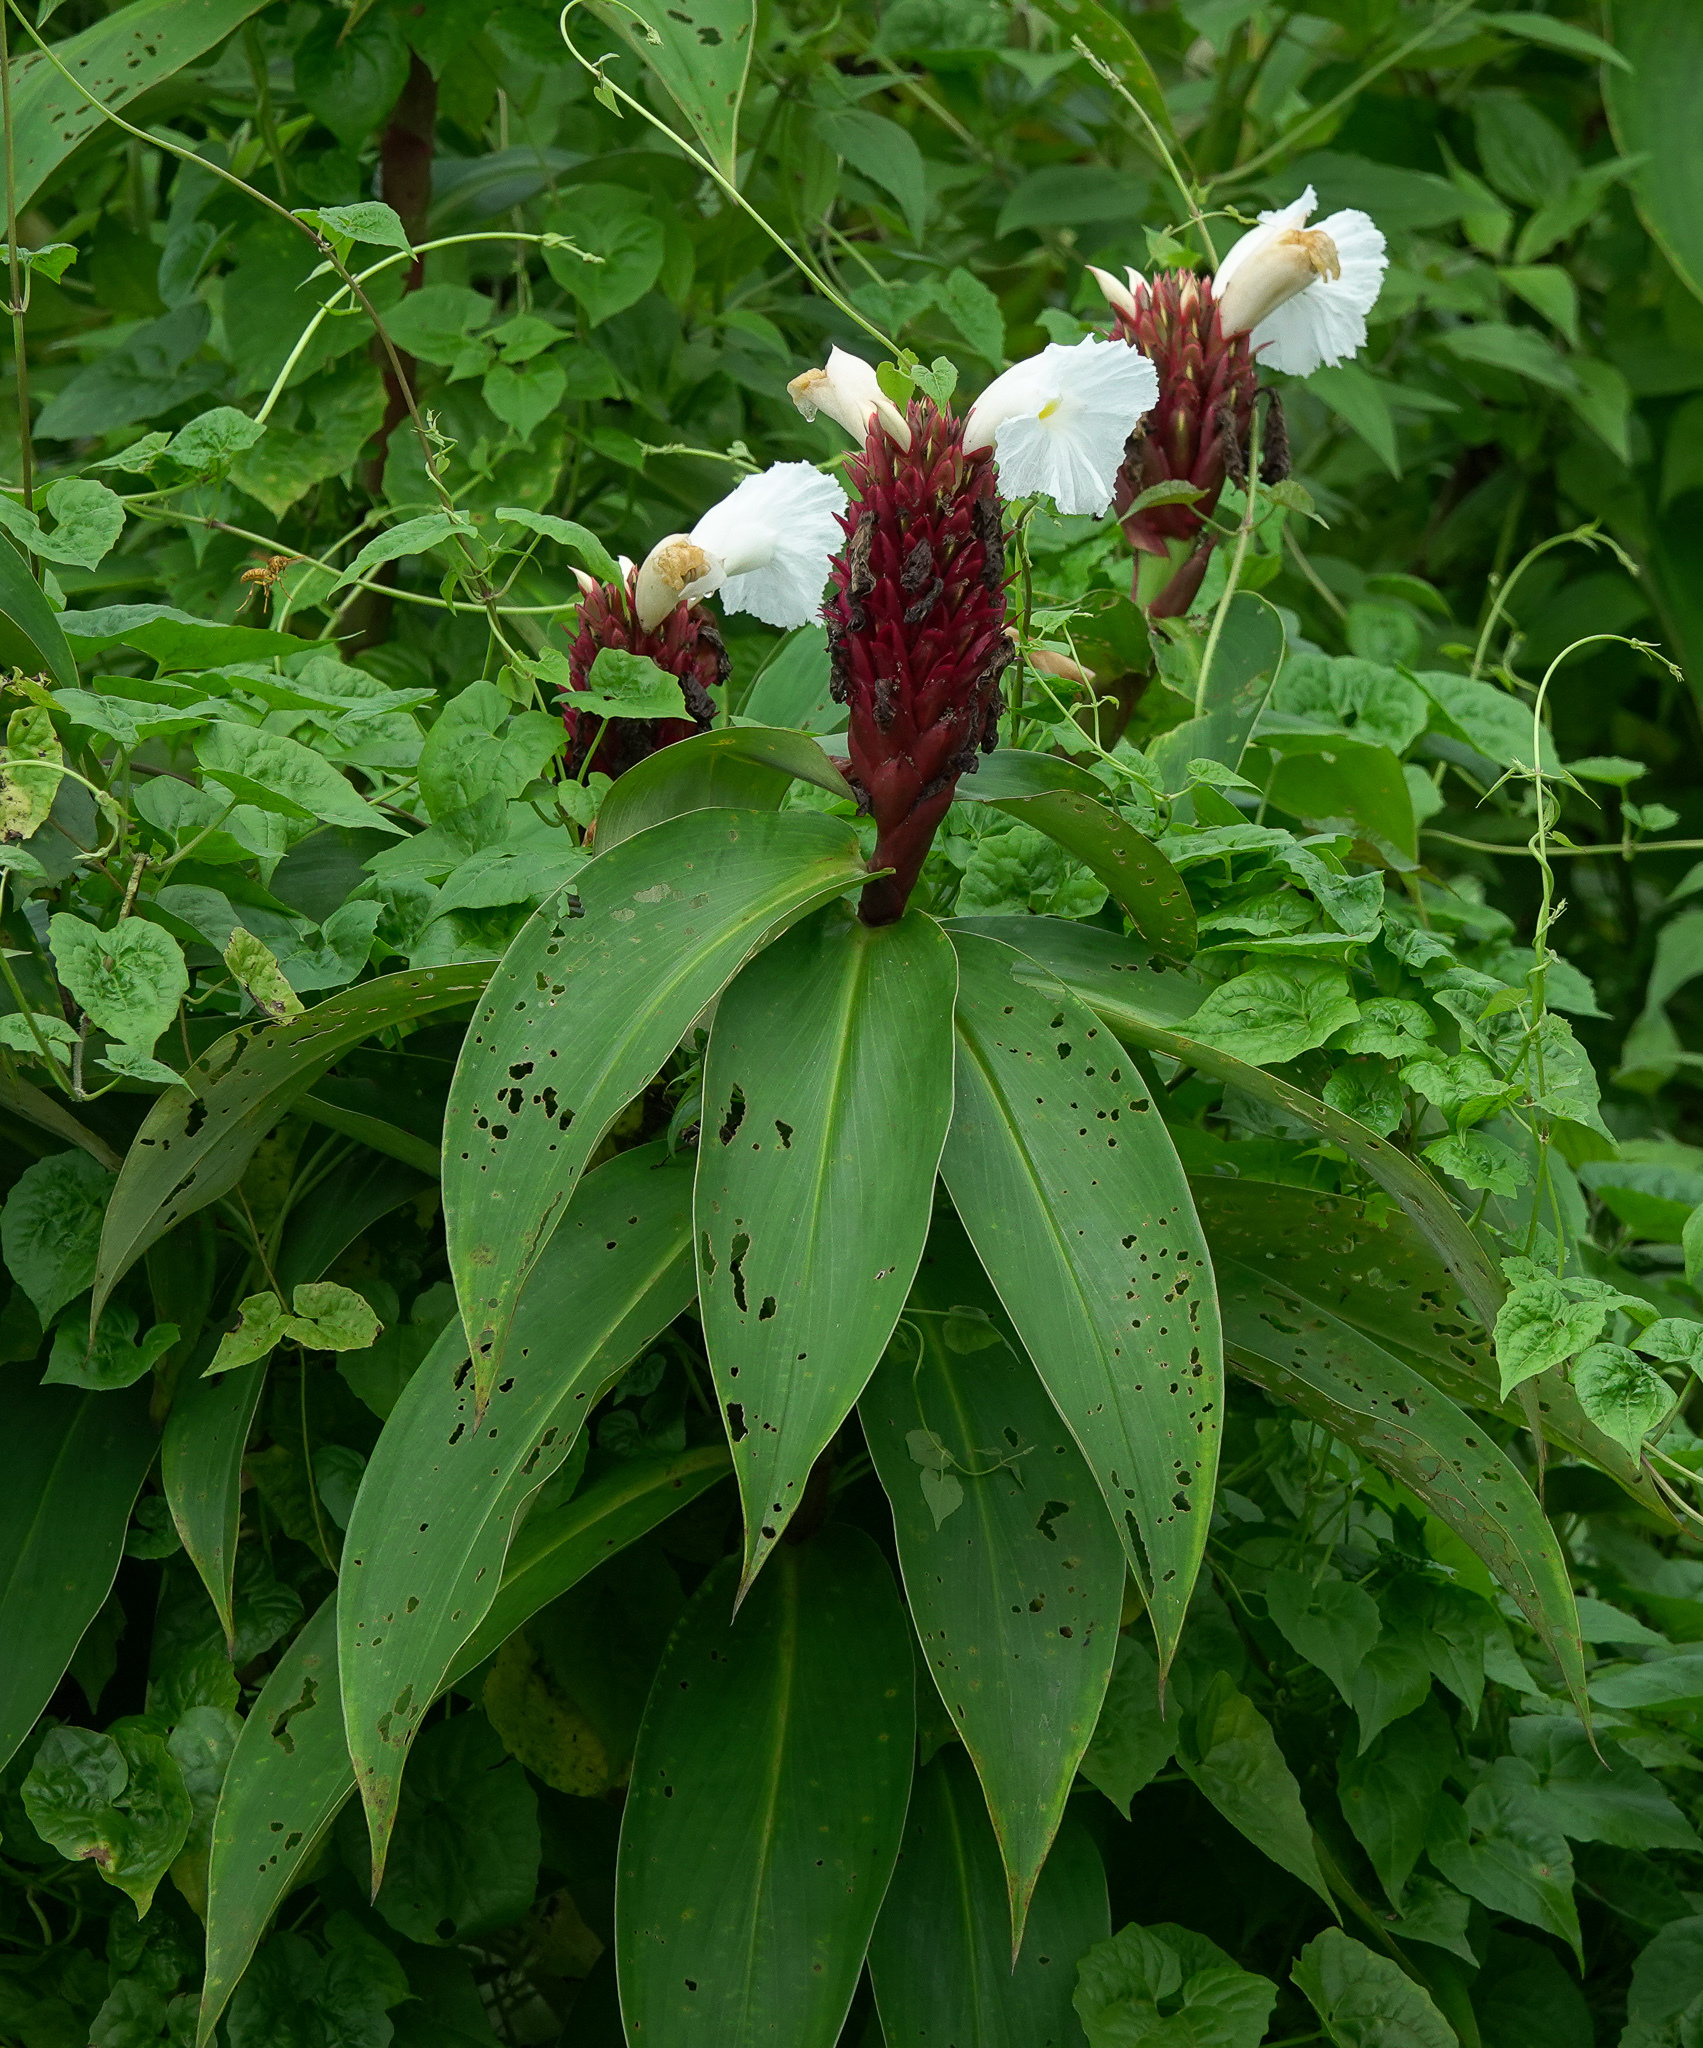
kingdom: Plantae
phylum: Tracheophyta
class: Liliopsida
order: Zingiberales
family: Costaceae
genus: Hellenia
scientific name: Hellenia speciosa
